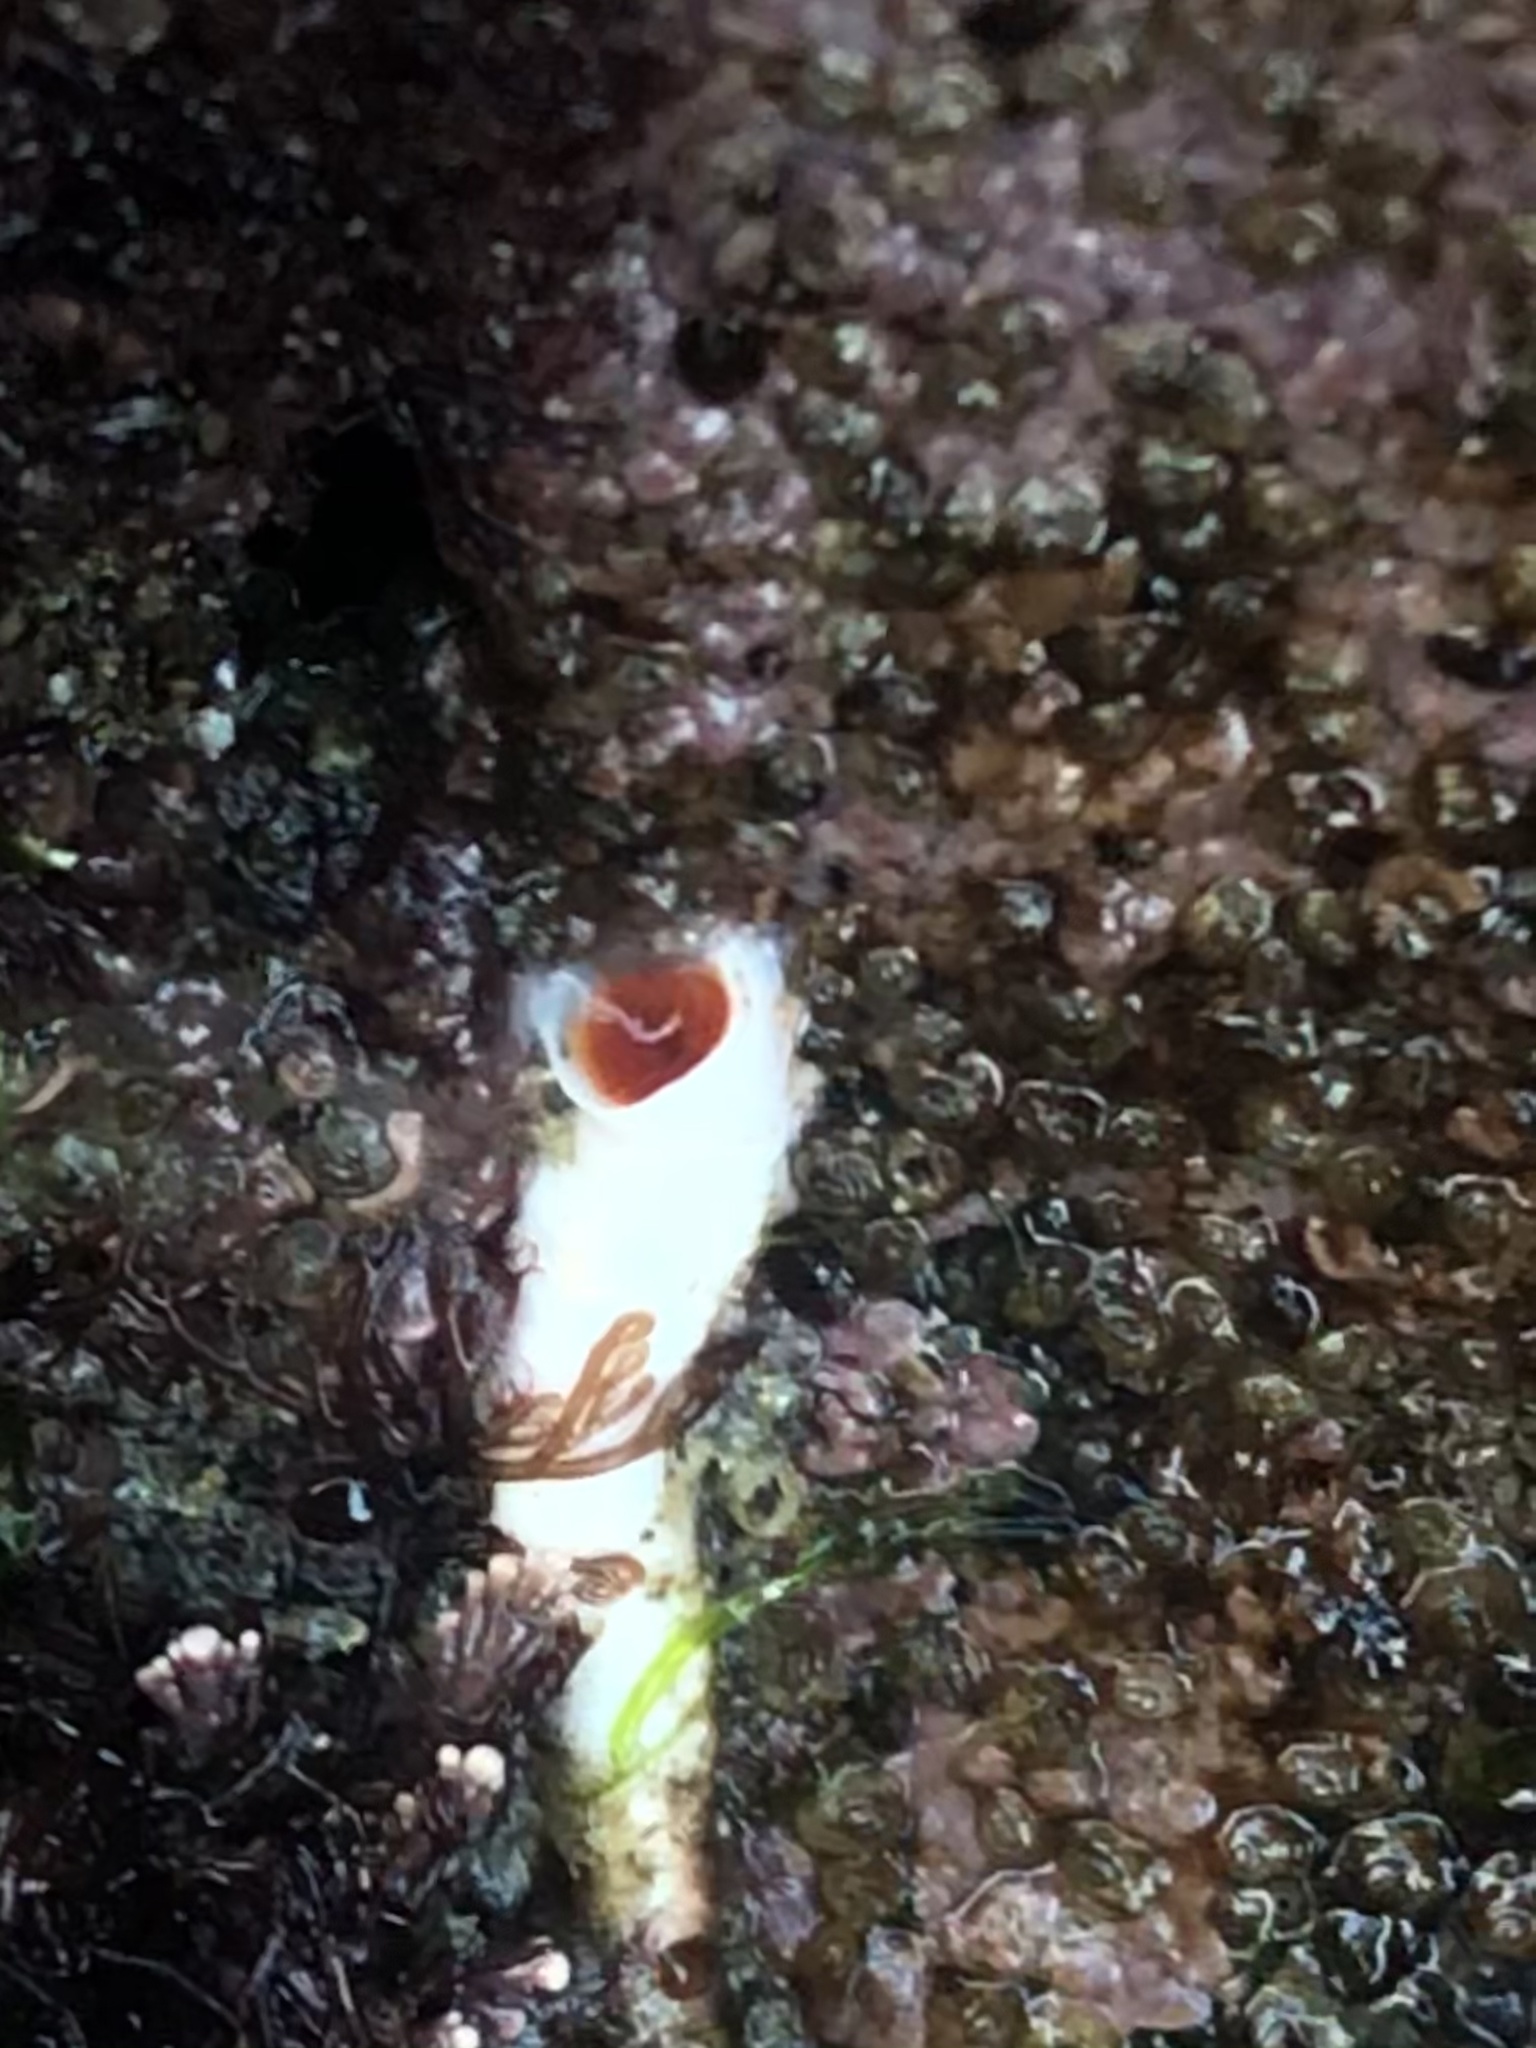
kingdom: Animalia
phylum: Annelida
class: Polychaeta
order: Sabellida
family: Serpulidae
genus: Serpula
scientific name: Serpula columbiana
